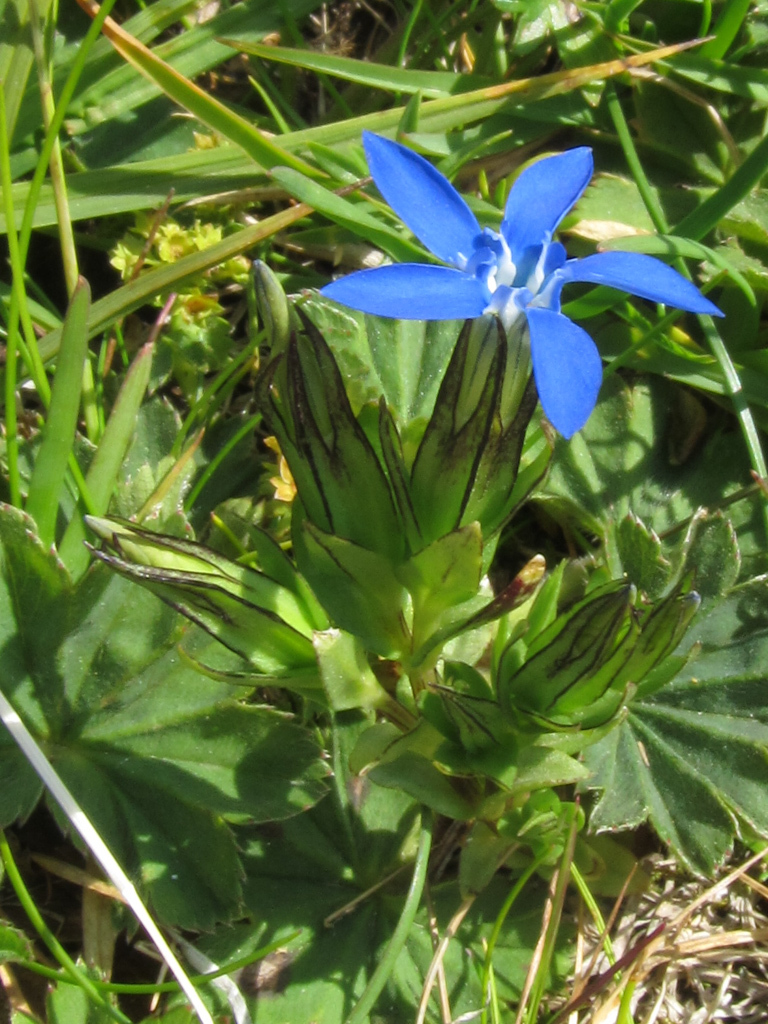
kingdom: Plantae
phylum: Tracheophyta
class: Magnoliopsida
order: Gentianales
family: Gentianaceae
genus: Gentiana
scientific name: Gentiana nivalis
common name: Alpine gentian
